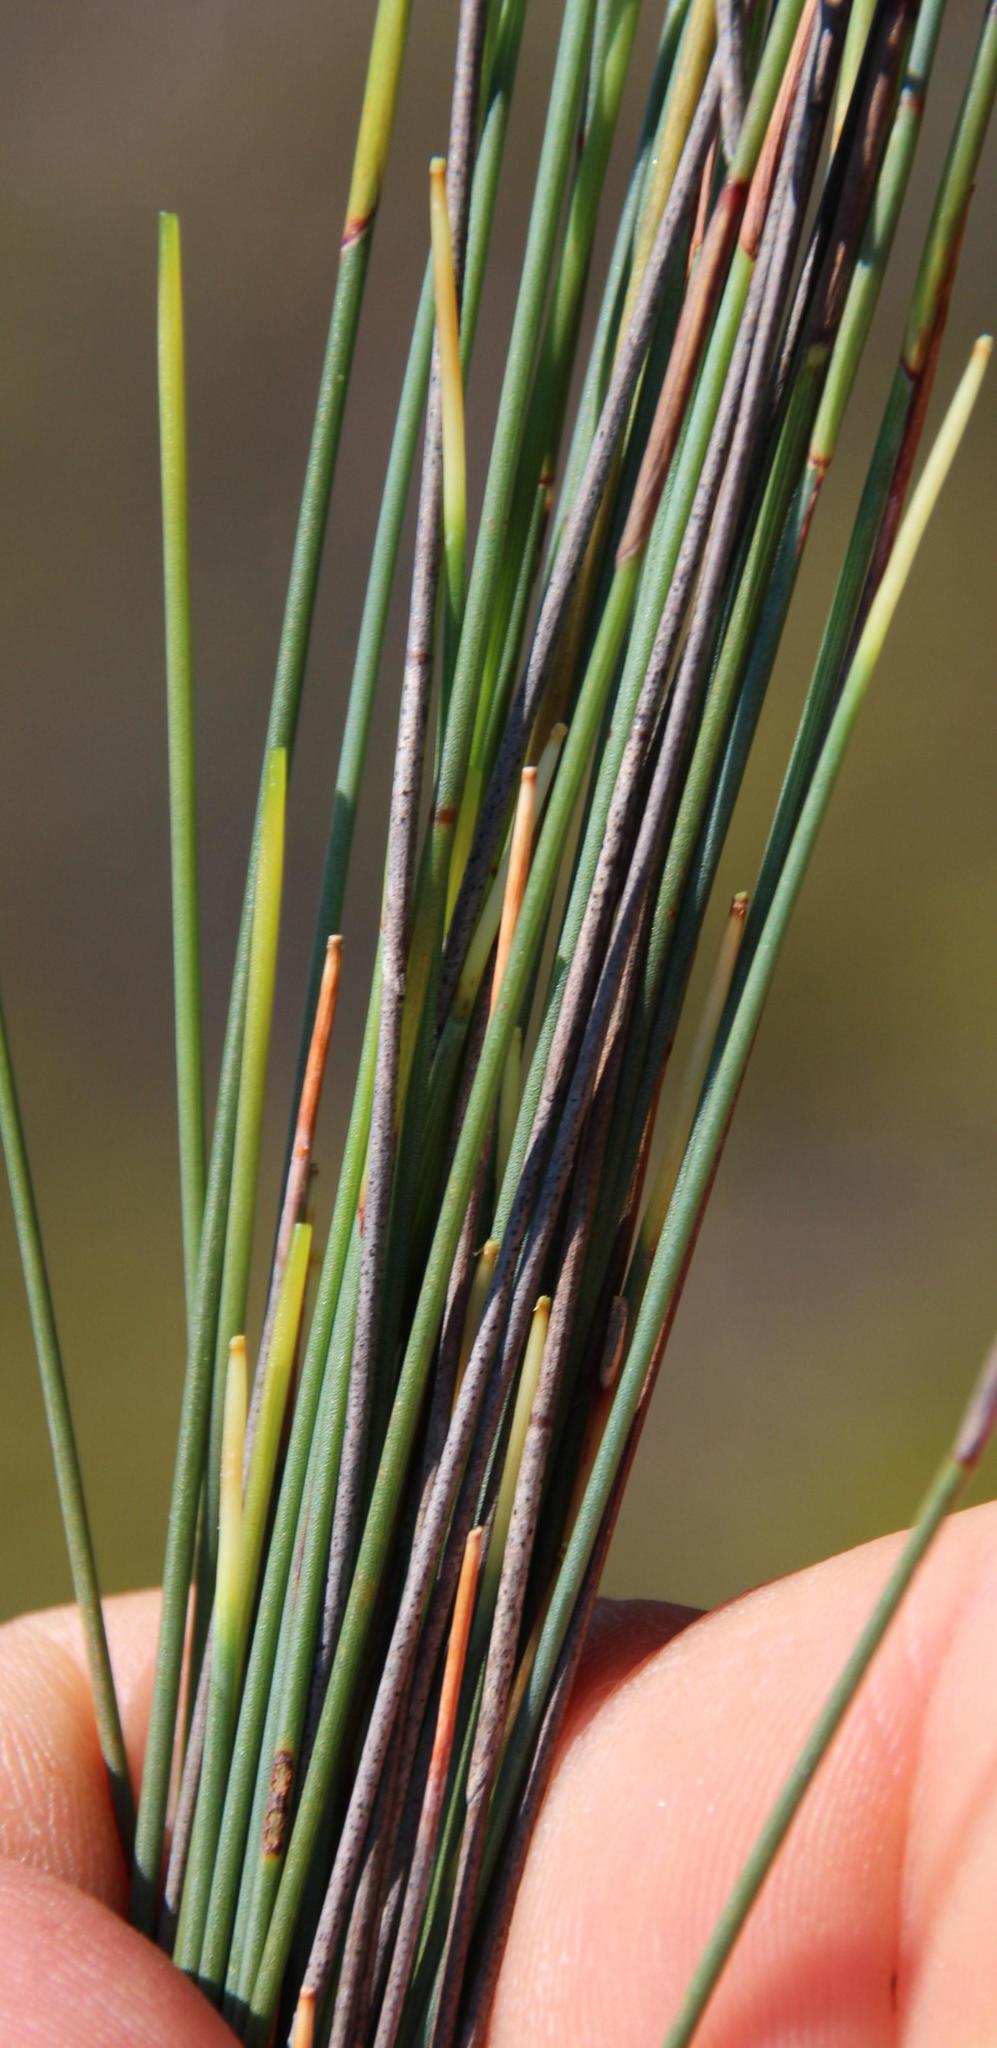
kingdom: Plantae
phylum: Tracheophyta
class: Liliopsida
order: Poales
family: Restionaceae
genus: Hypodiscus
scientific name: Hypodiscus striatus
